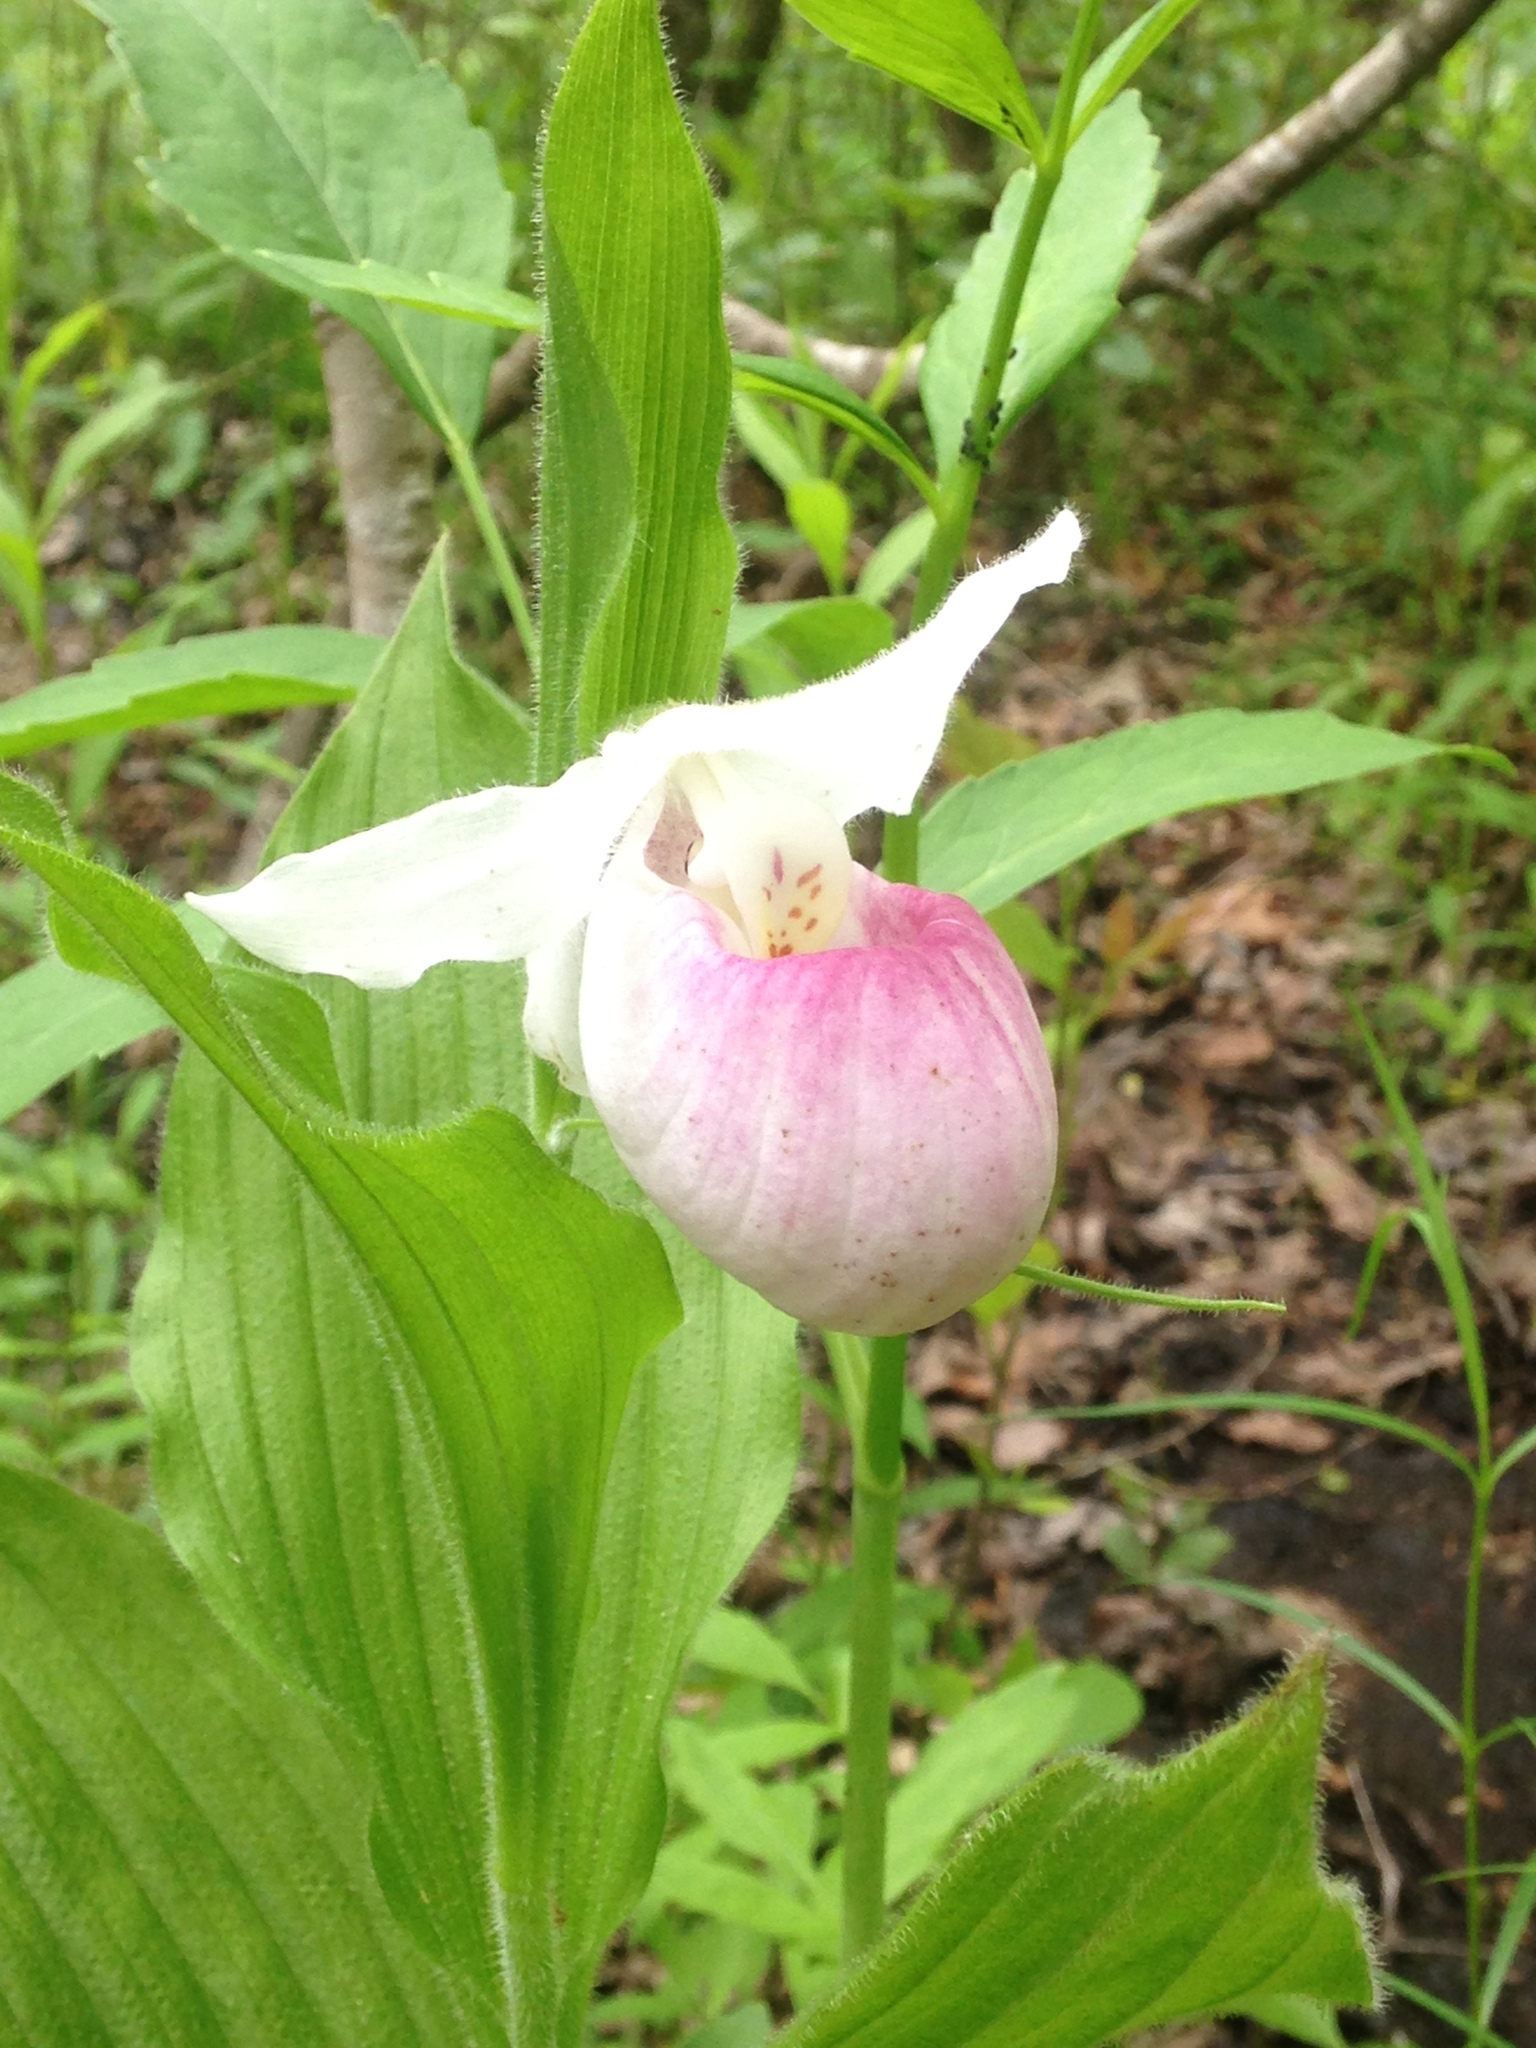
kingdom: Plantae
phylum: Tracheophyta
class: Liliopsida
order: Asparagales
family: Orchidaceae
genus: Cypripedium
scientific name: Cypripedium reginae
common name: Queen lady's-slipper
